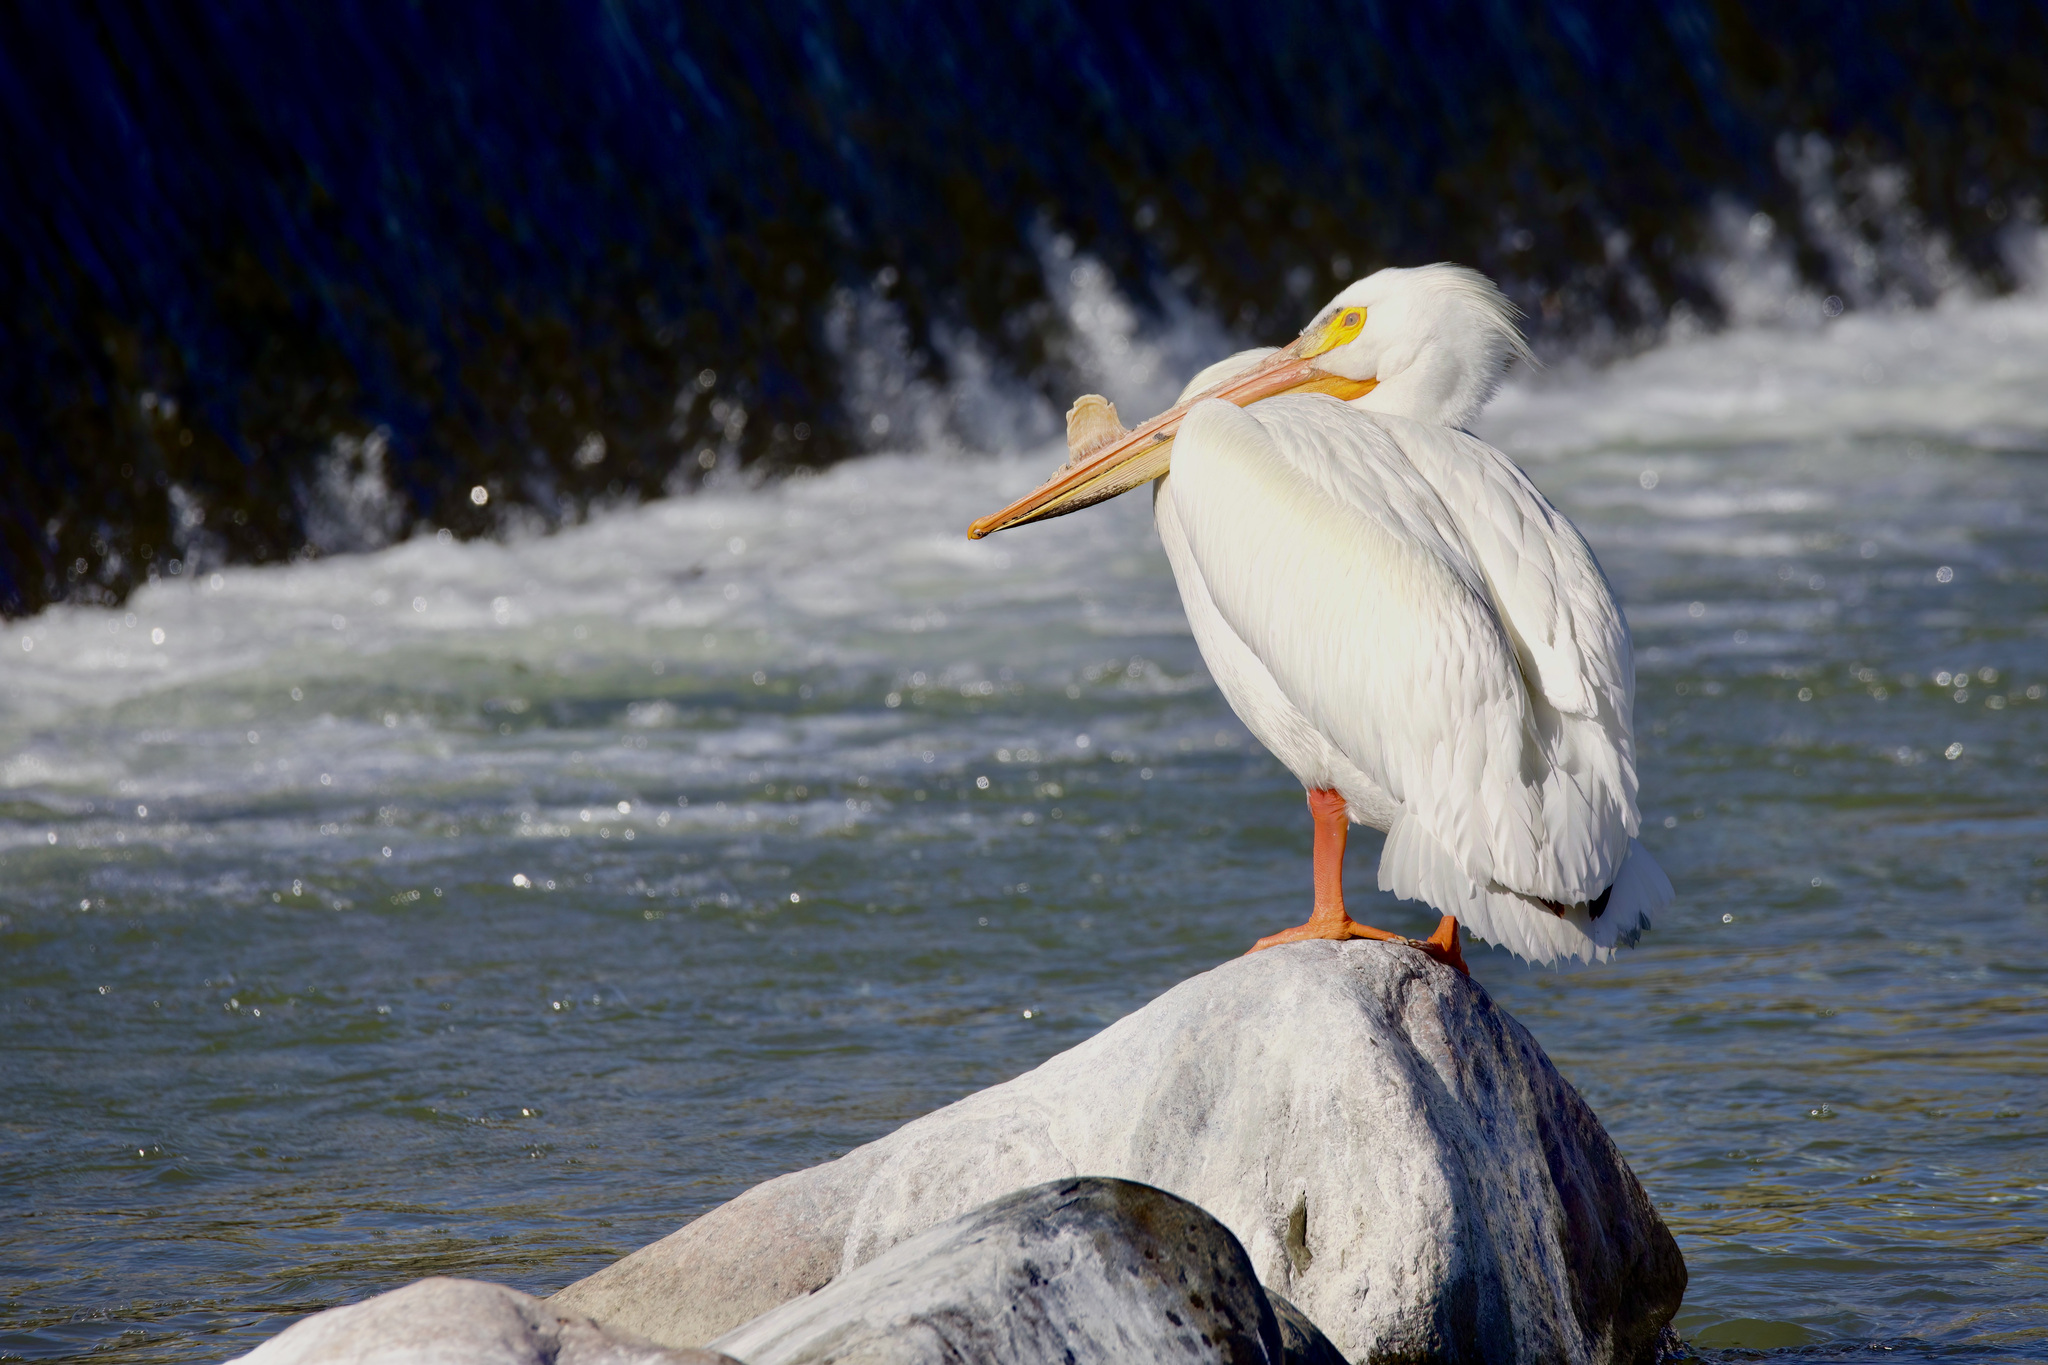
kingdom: Animalia
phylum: Chordata
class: Aves
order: Pelecaniformes
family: Pelecanidae
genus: Pelecanus
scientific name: Pelecanus erythrorhynchos
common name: American white pelican
